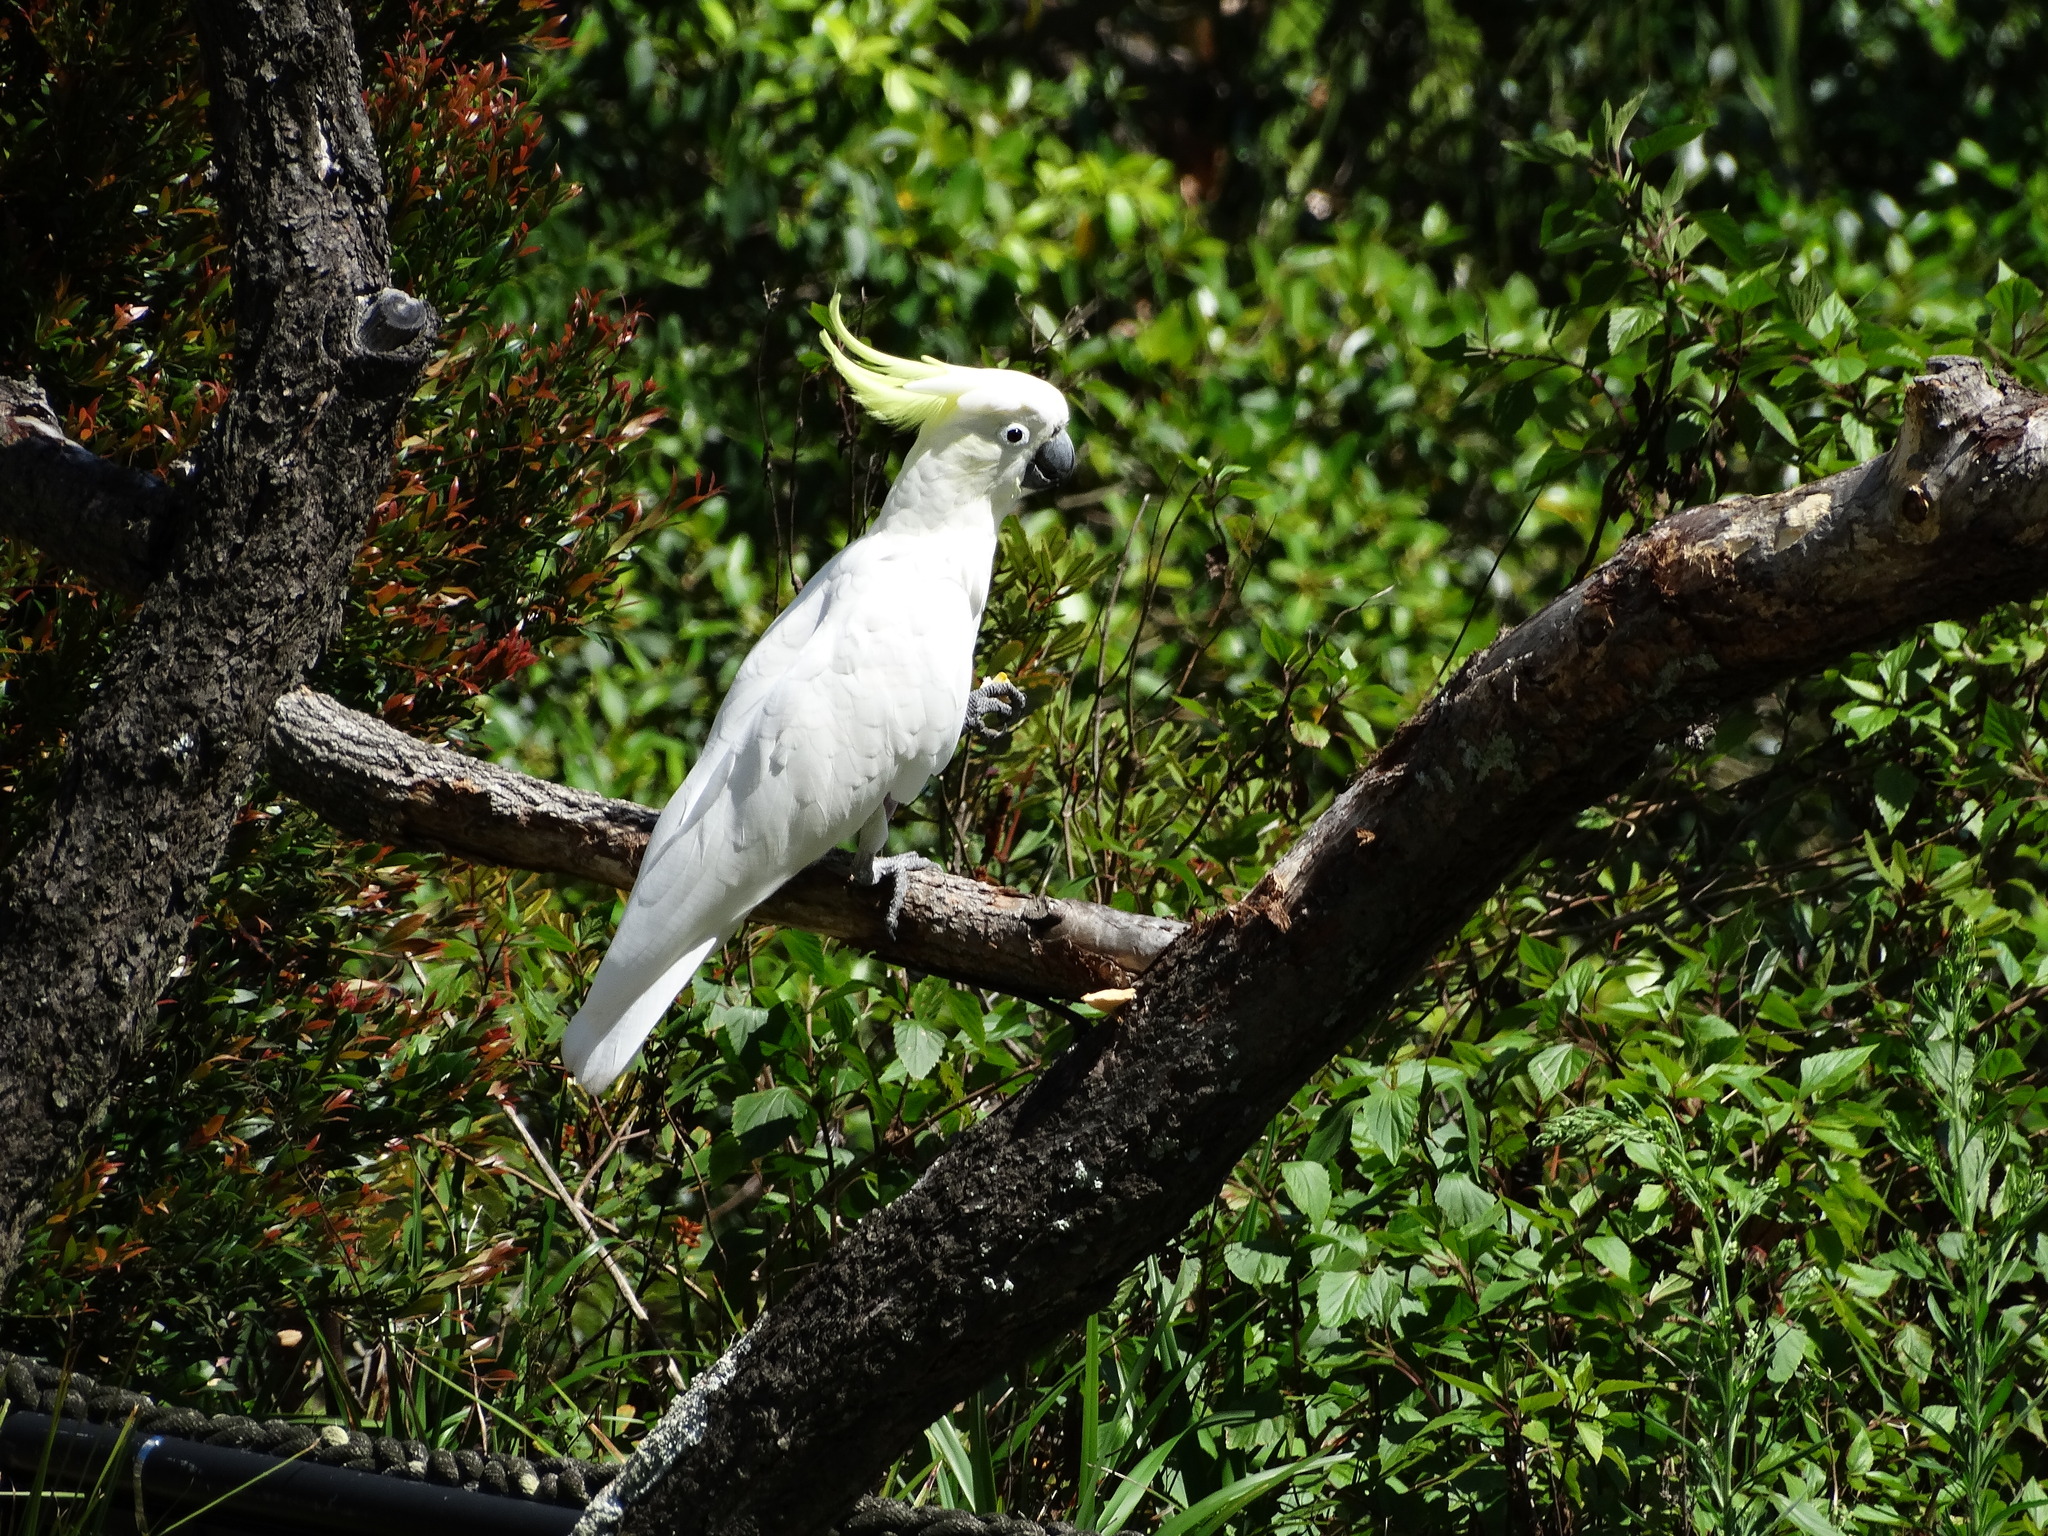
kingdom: Animalia
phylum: Chordata
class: Aves
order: Psittaciformes
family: Psittacidae
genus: Cacatua
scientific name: Cacatua galerita
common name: Sulphur-crested cockatoo
